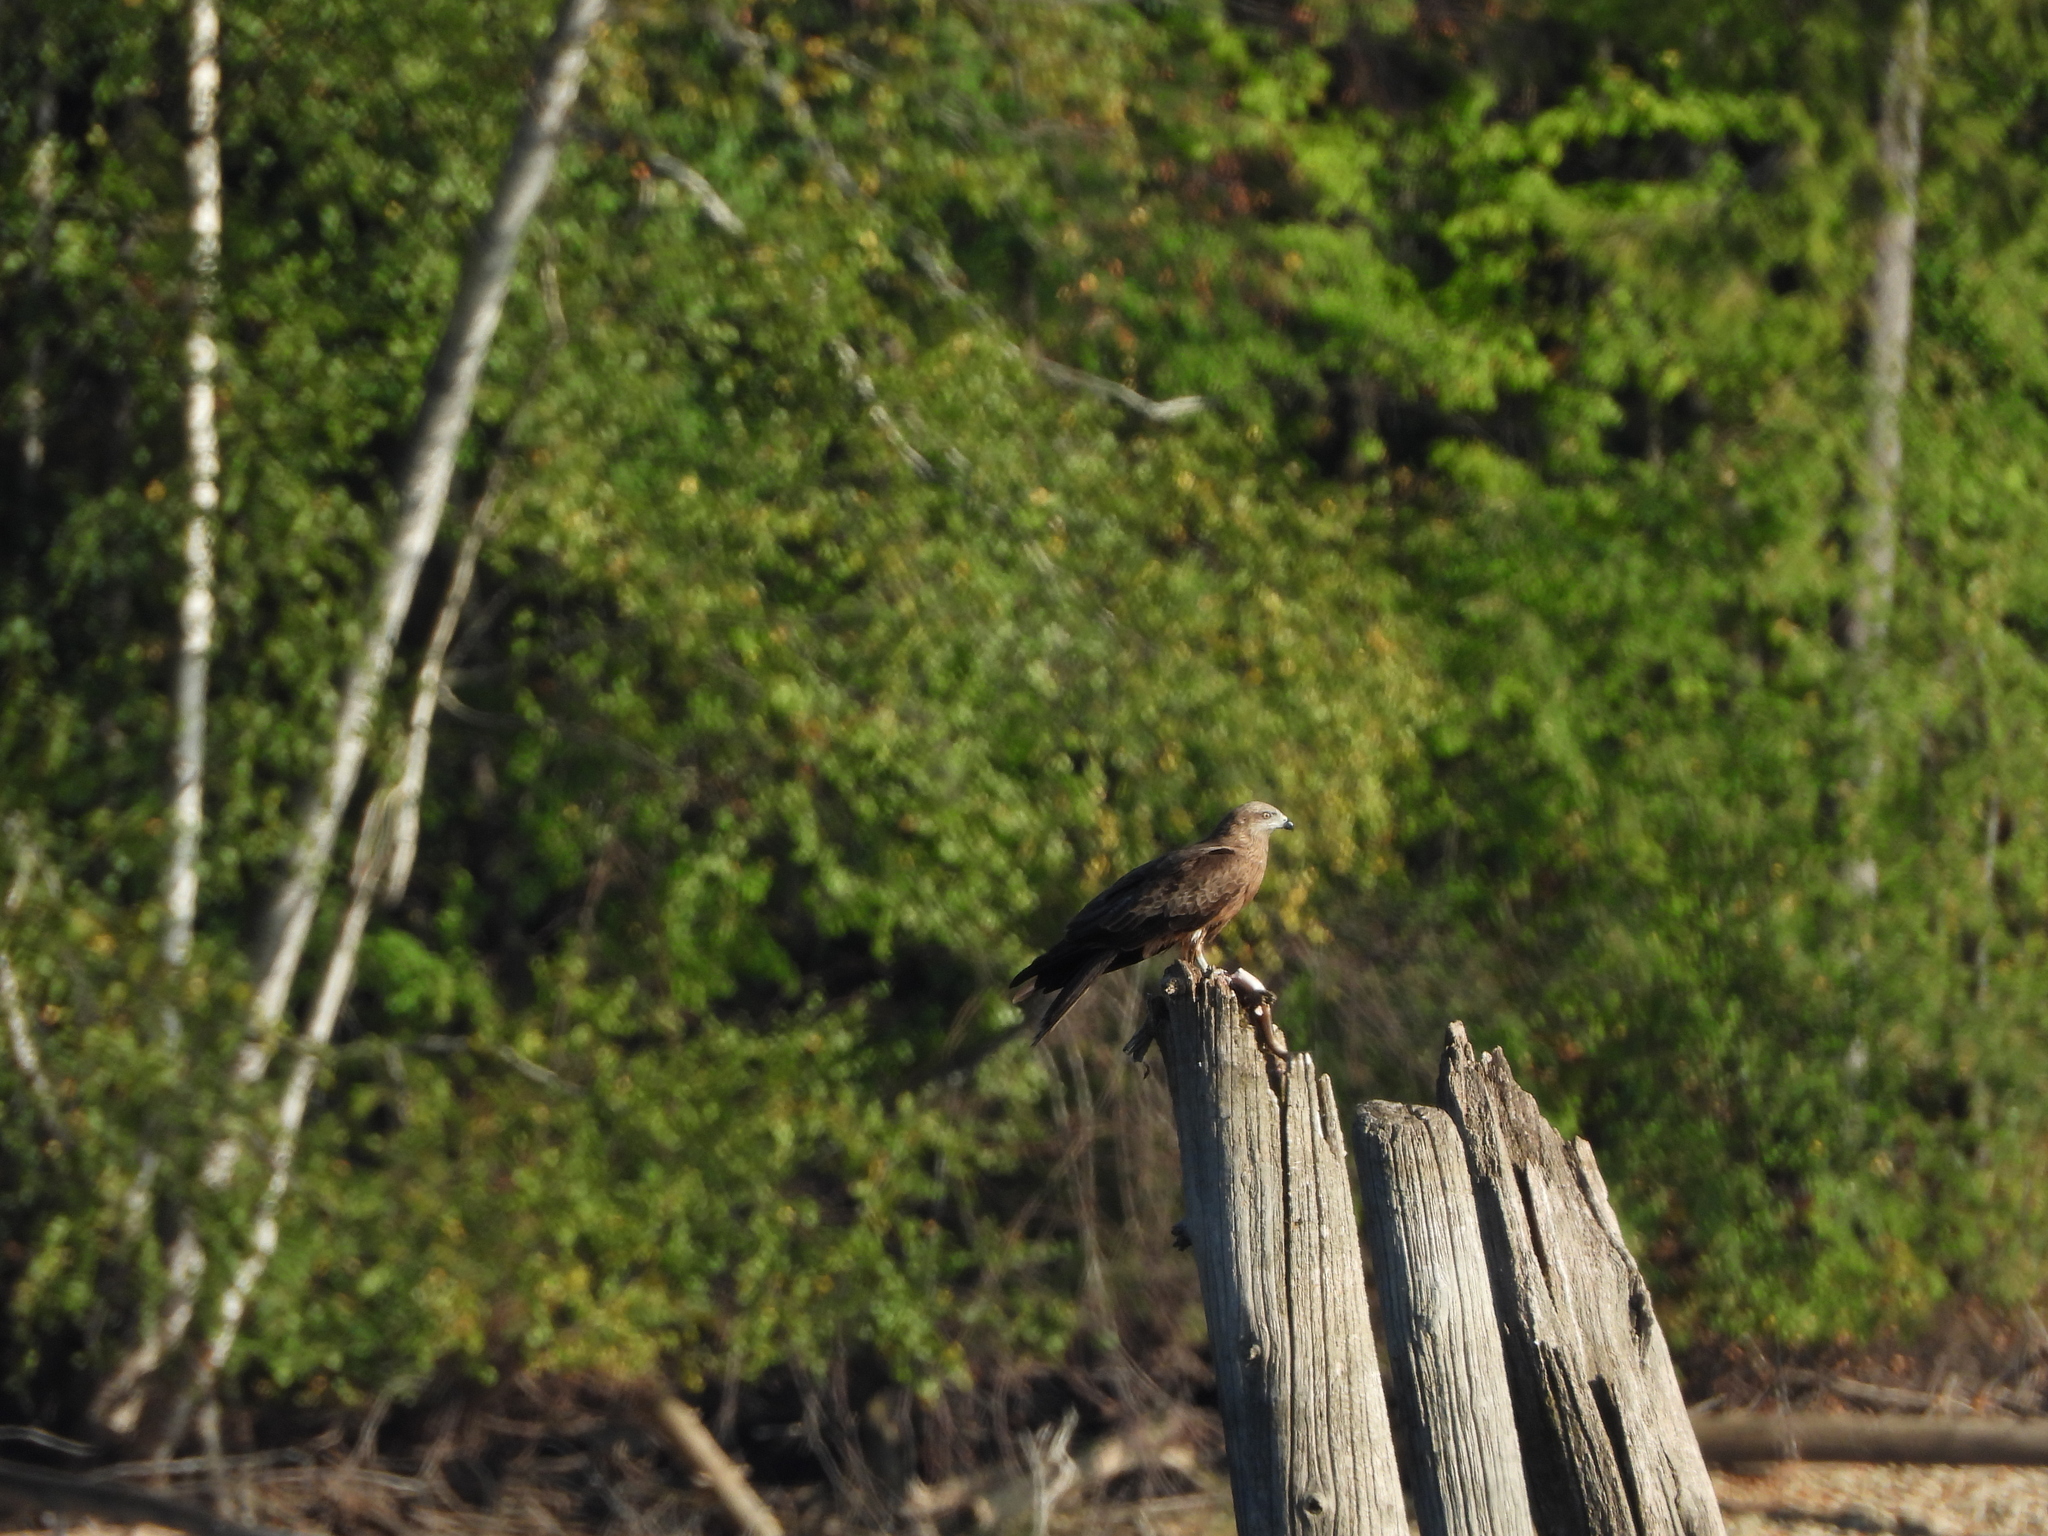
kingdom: Animalia
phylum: Chordata
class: Aves
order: Accipitriformes
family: Accipitridae
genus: Milvus
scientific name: Milvus migrans
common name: Black kite
